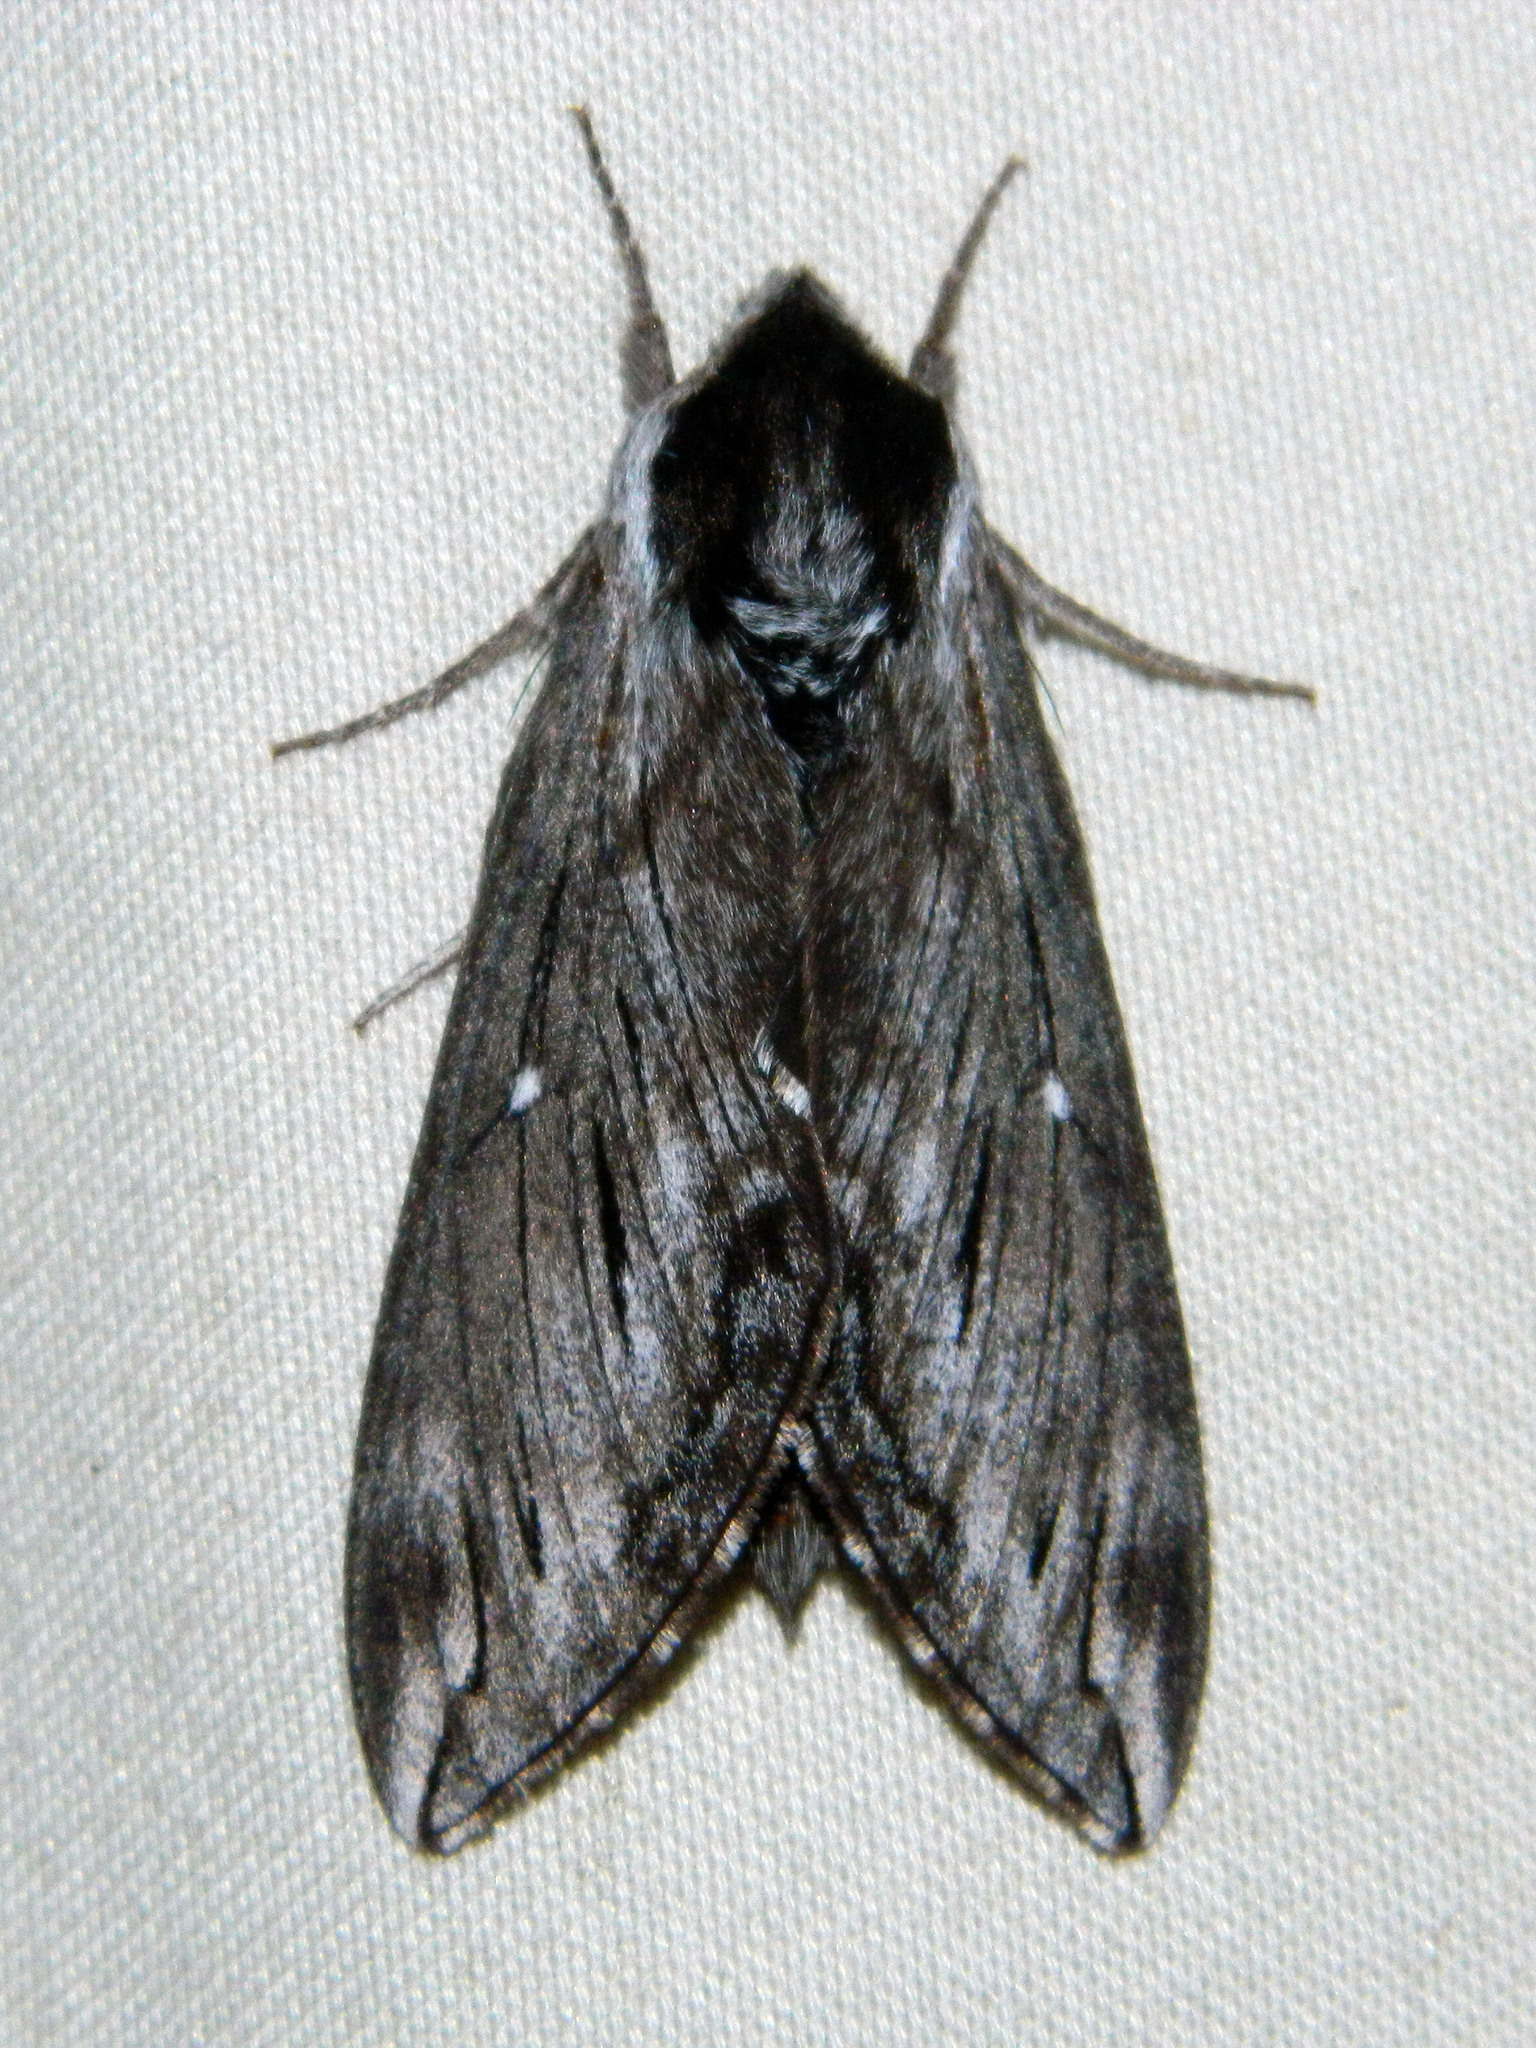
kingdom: Animalia
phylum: Arthropoda
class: Insecta
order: Lepidoptera
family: Sphingidae
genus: Sphinx
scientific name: Sphinx poecila
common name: Northern apple sphinx
